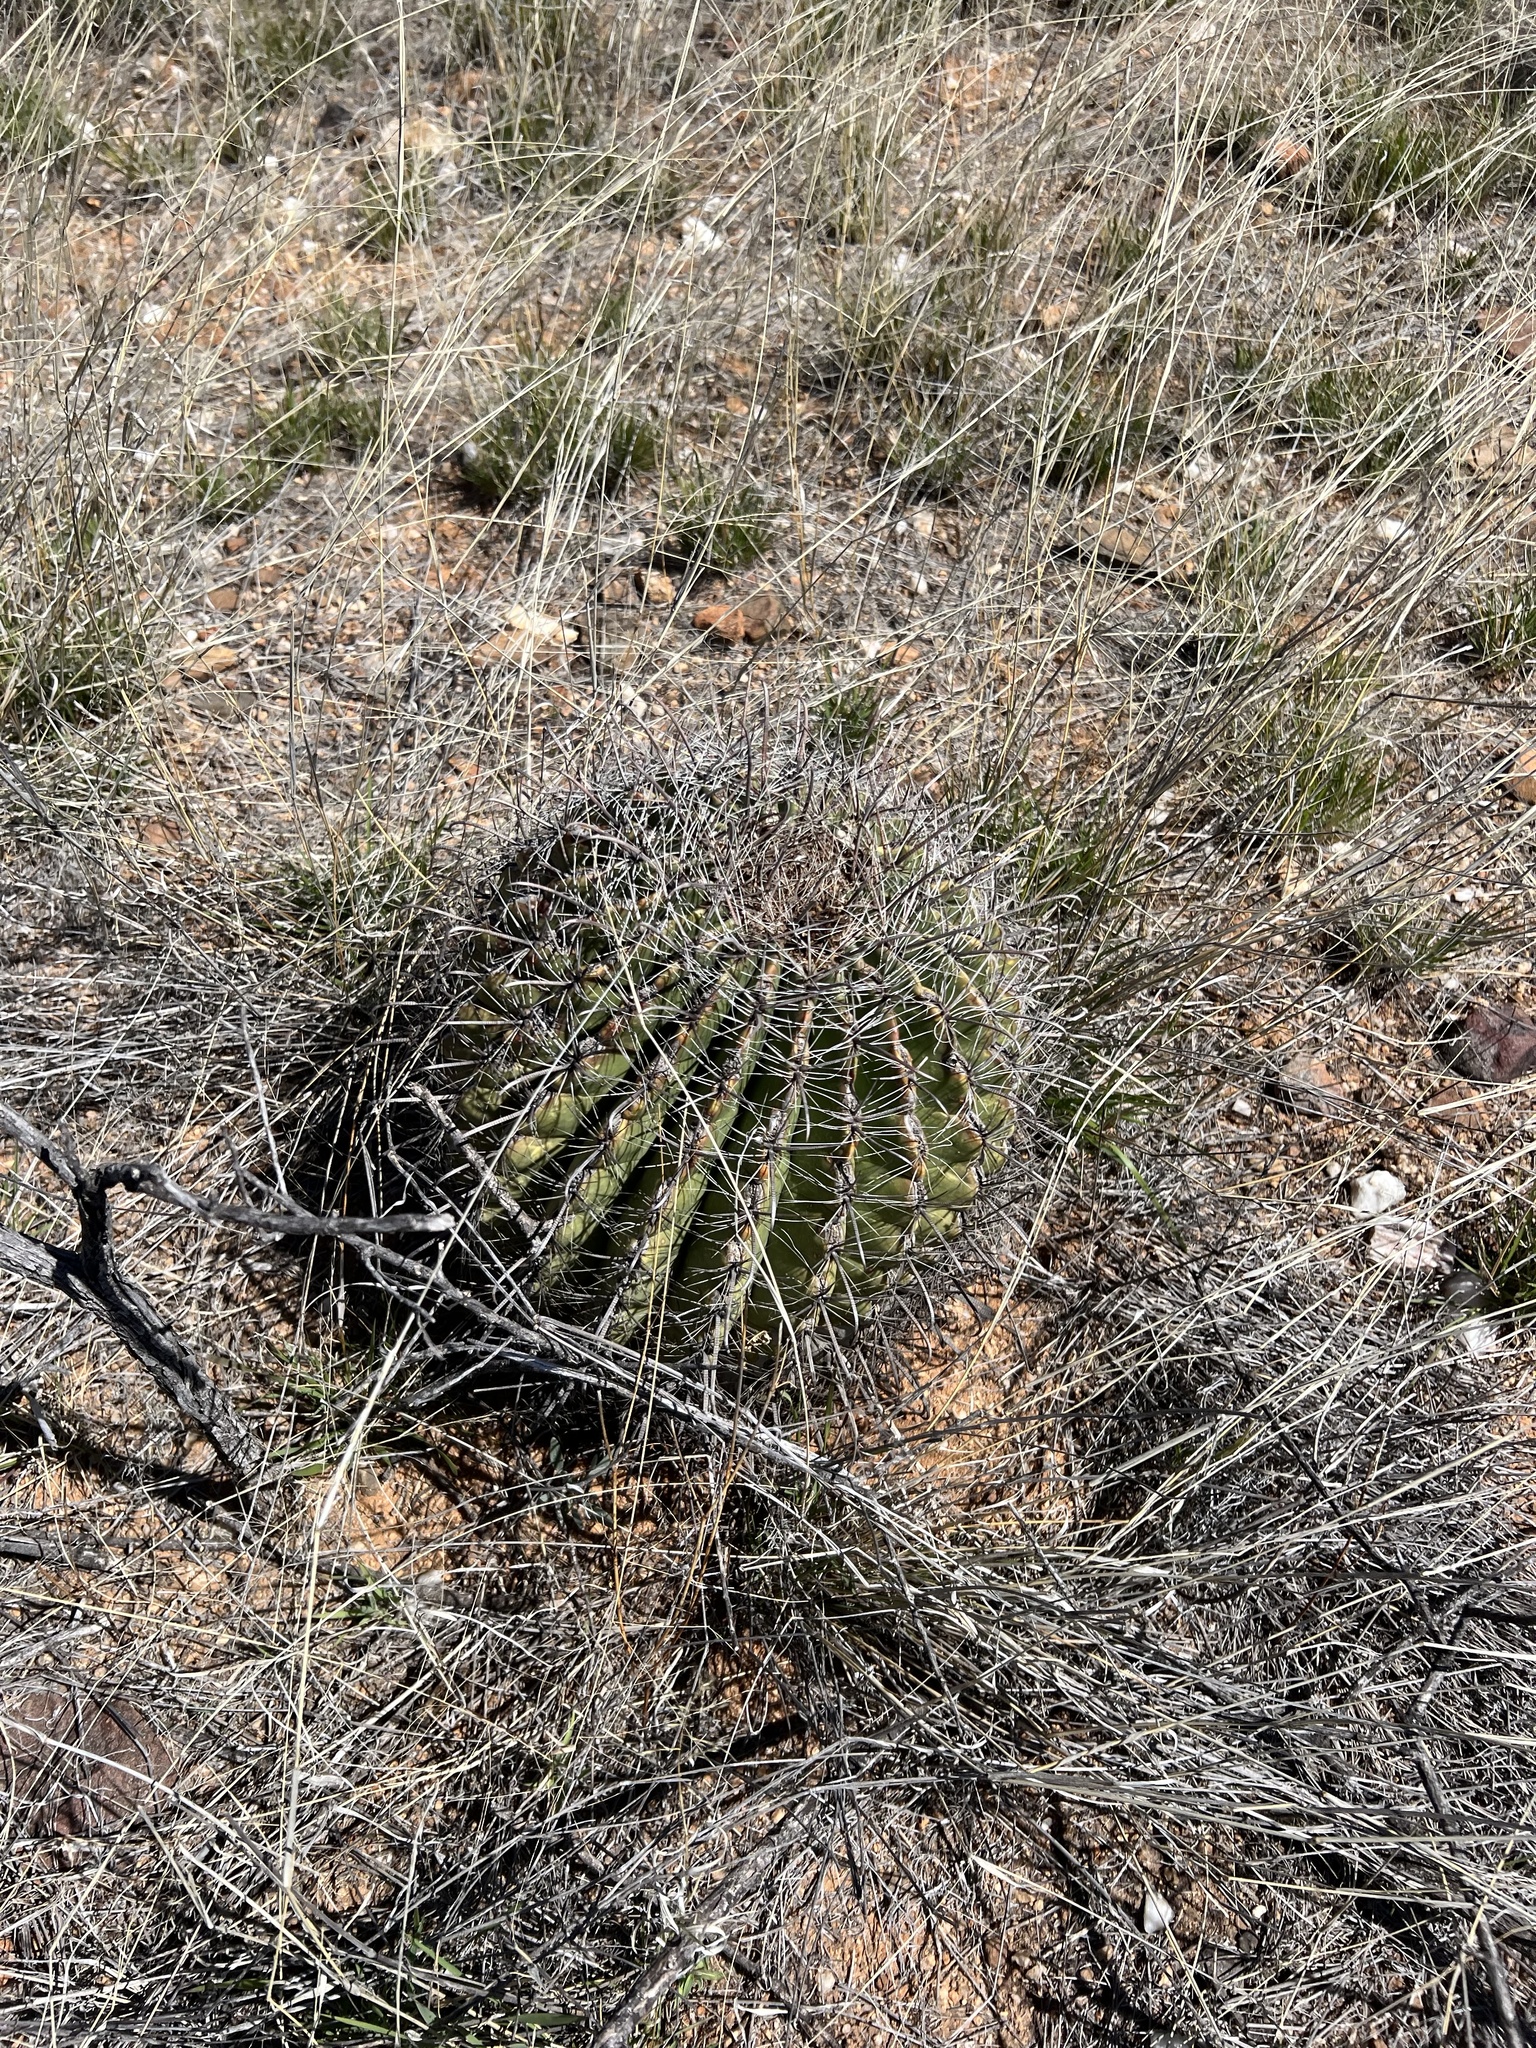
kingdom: Plantae
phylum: Tracheophyta
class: Magnoliopsida
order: Caryophyllales
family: Cactaceae
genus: Ferocactus
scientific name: Ferocactus wislizeni
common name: Candy barrel cactus
